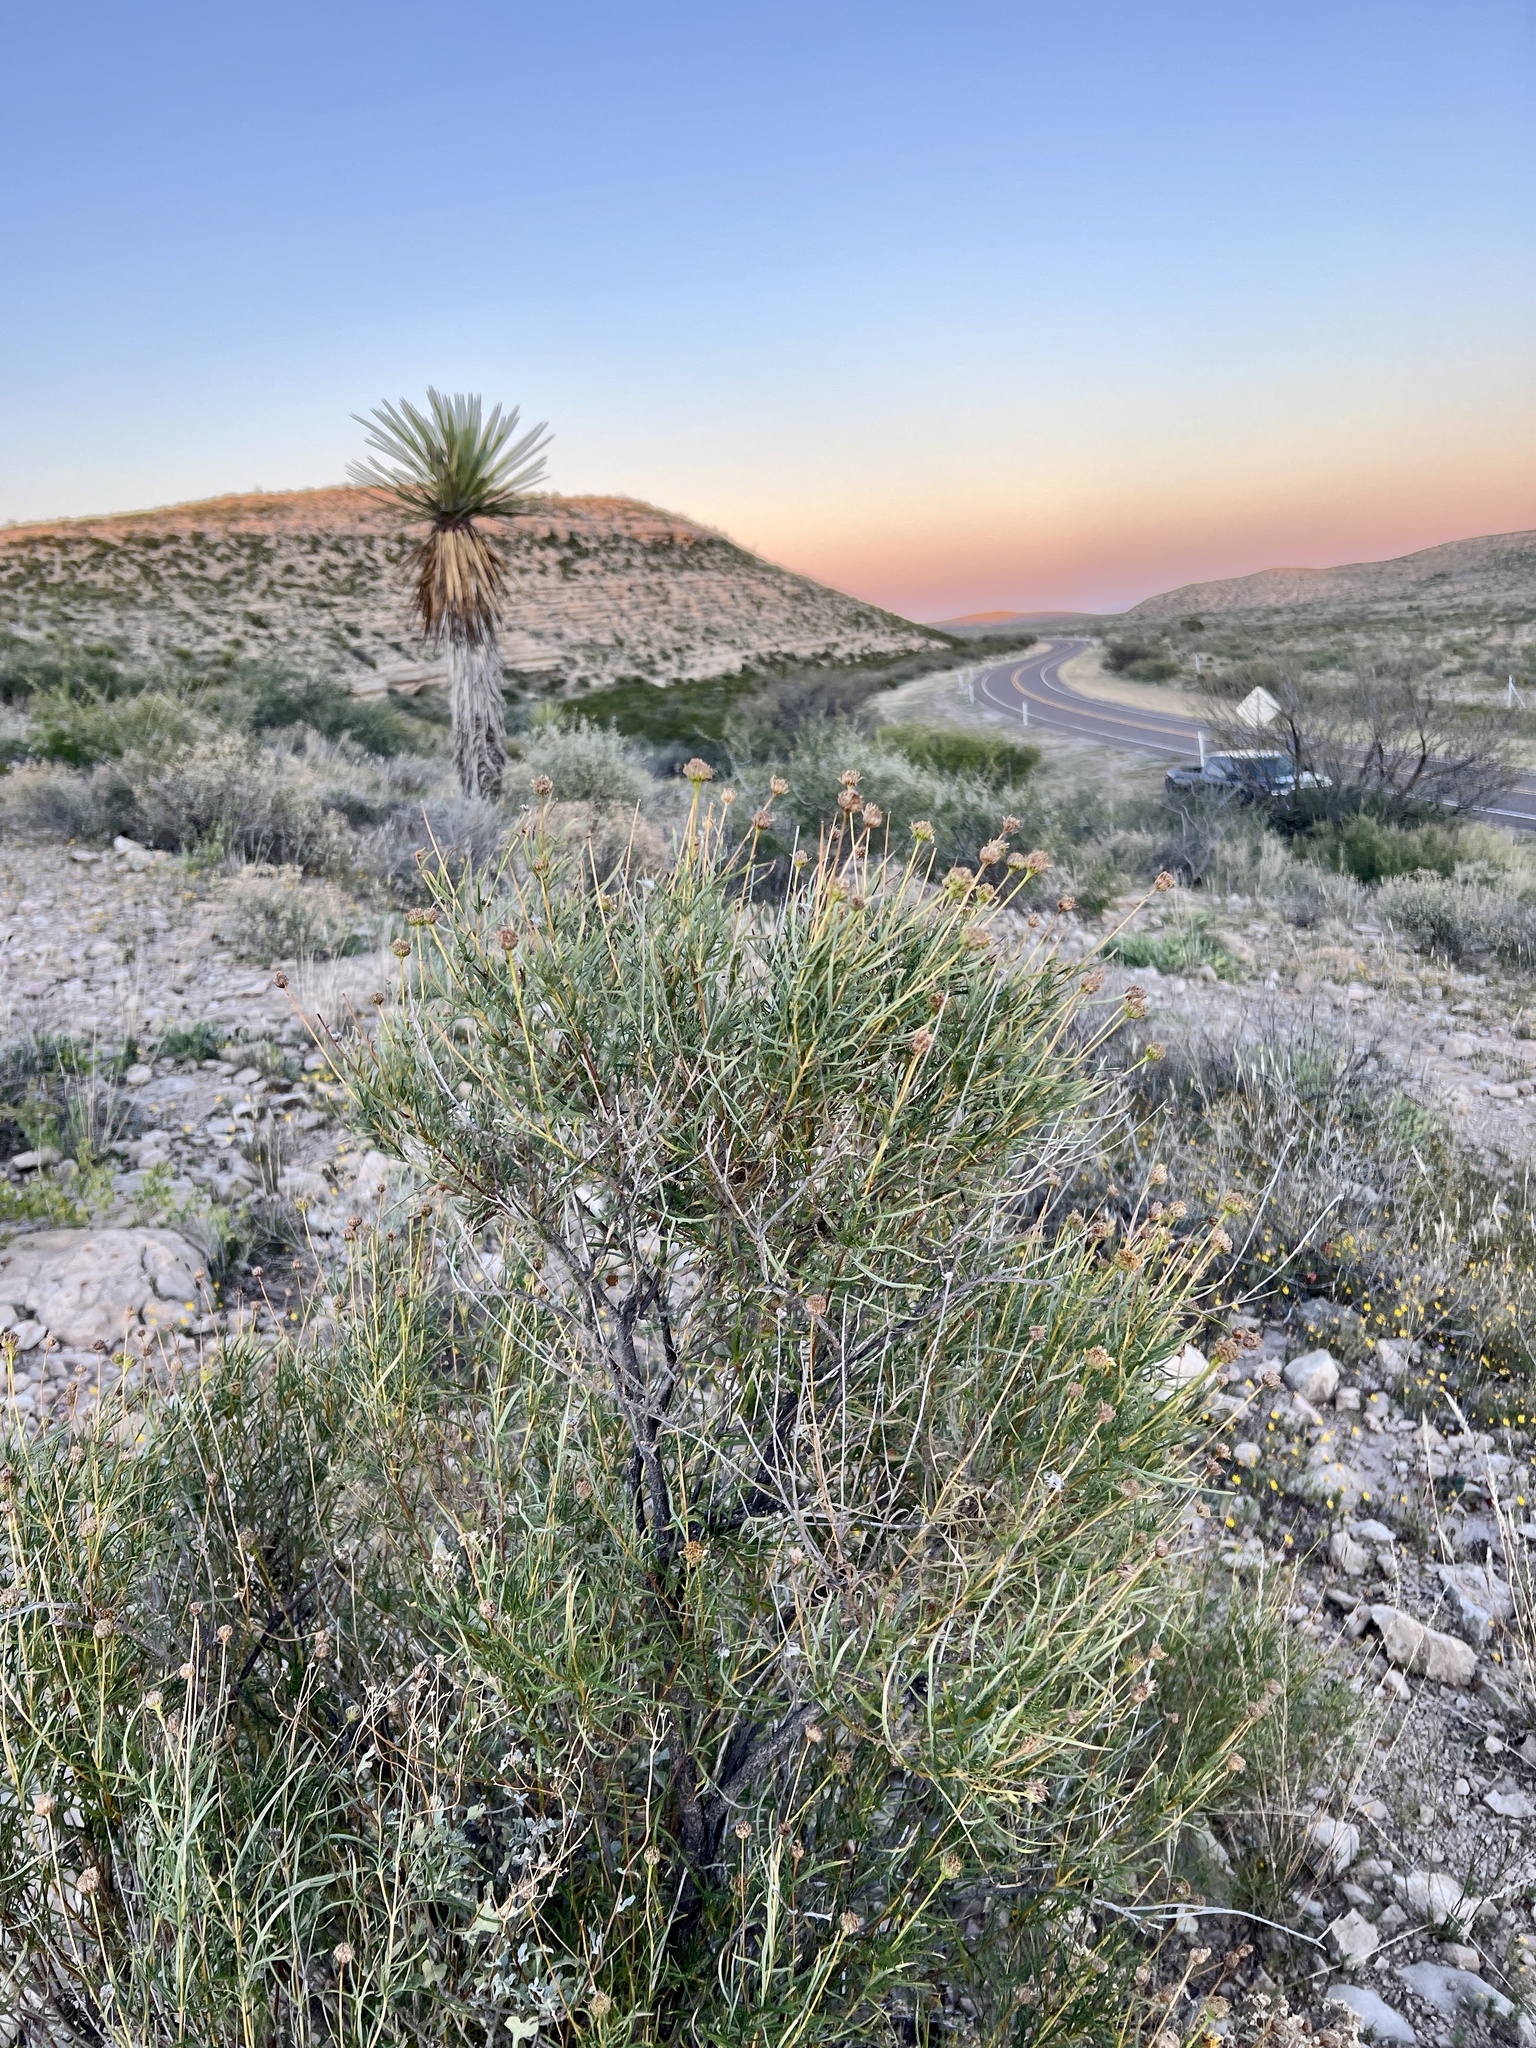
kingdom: Plantae
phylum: Tracheophyta
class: Magnoliopsida
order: Asterales
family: Asteraceae
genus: Sidneya
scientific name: Sidneya tenuifolia
